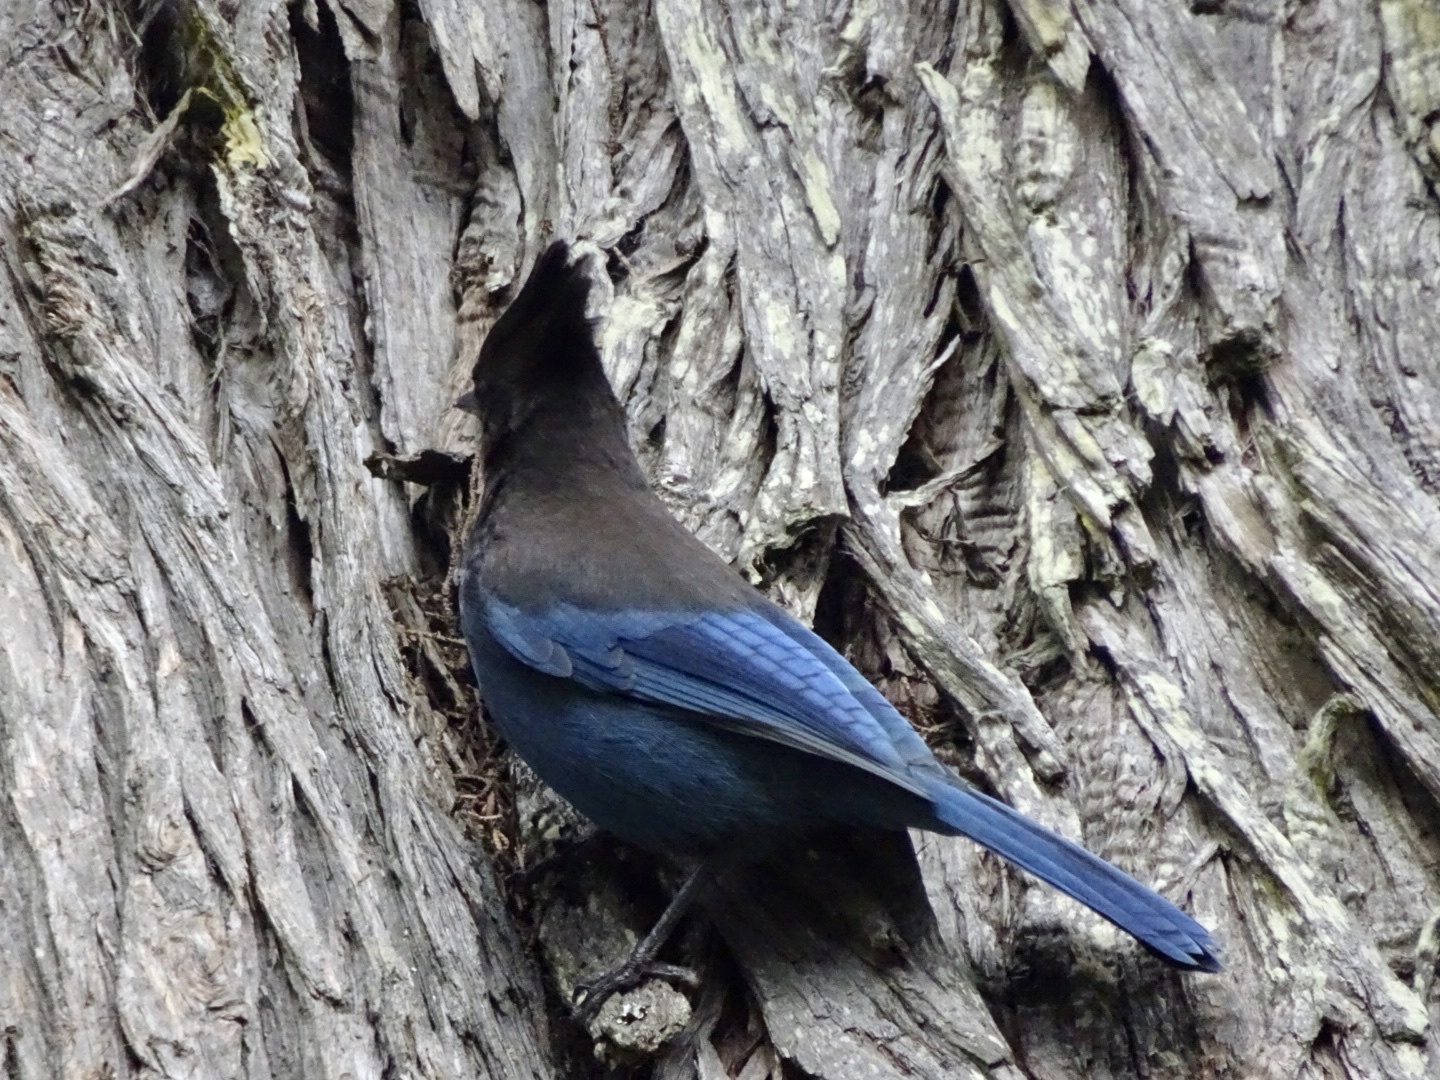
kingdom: Animalia
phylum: Chordata
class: Aves
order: Passeriformes
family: Corvidae
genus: Cyanocitta
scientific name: Cyanocitta stelleri
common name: Steller's jay
